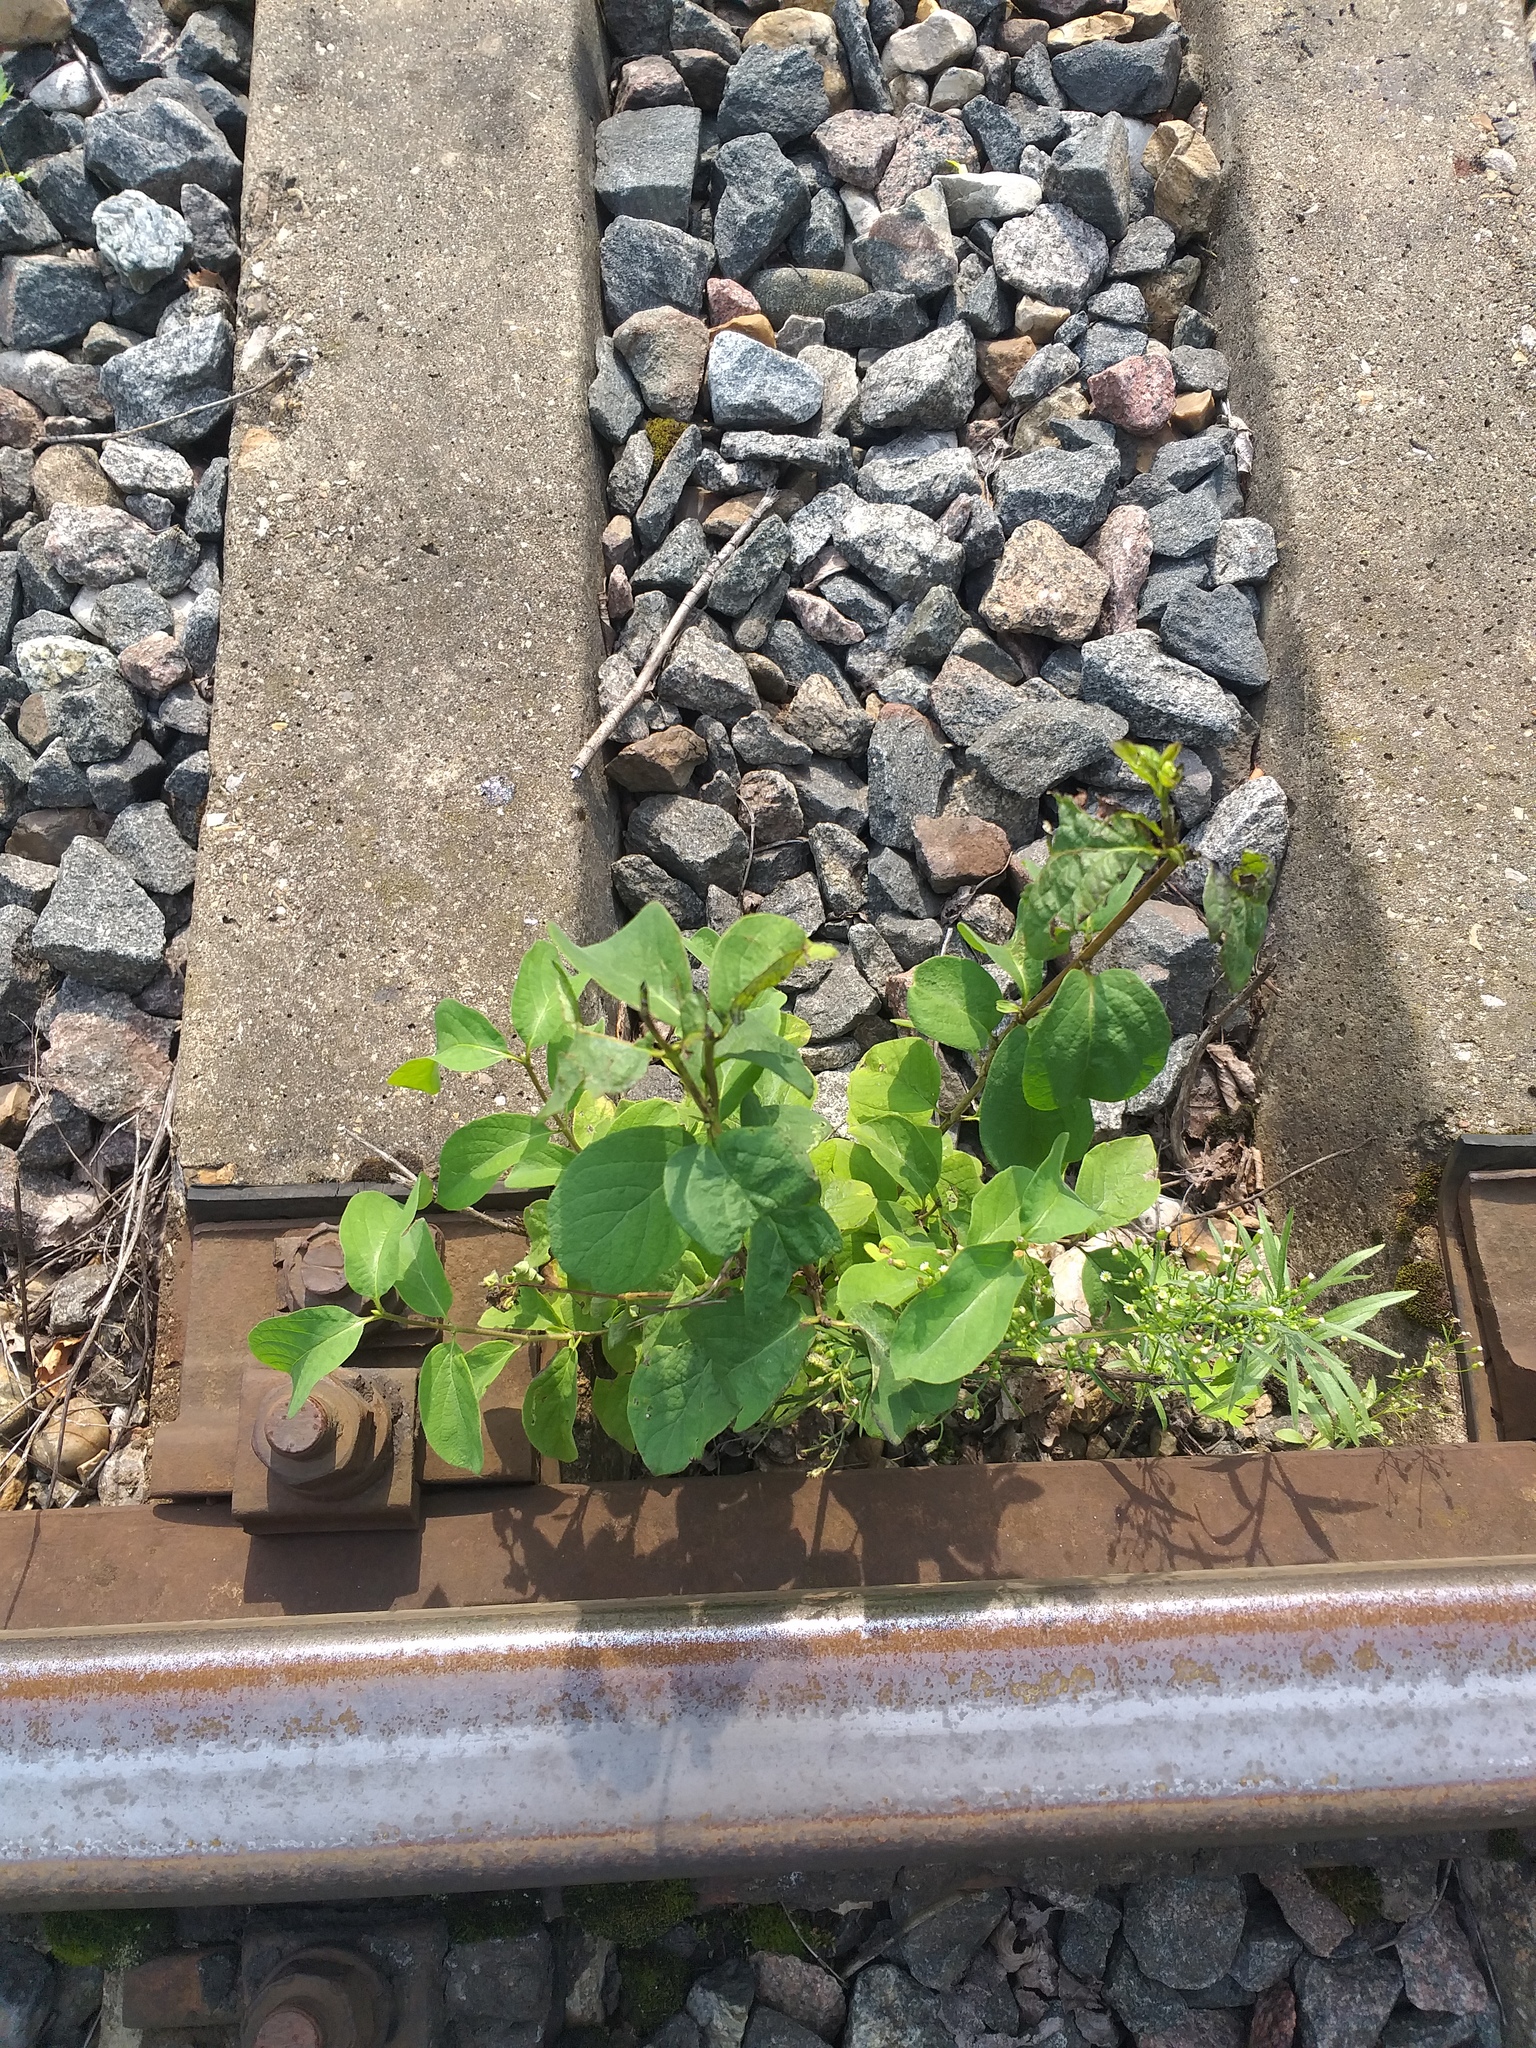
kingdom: Plantae
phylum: Tracheophyta
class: Magnoliopsida
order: Dipsacales
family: Caprifoliaceae
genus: Lonicera
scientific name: Lonicera xylosteum
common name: Fly honeysuckle
